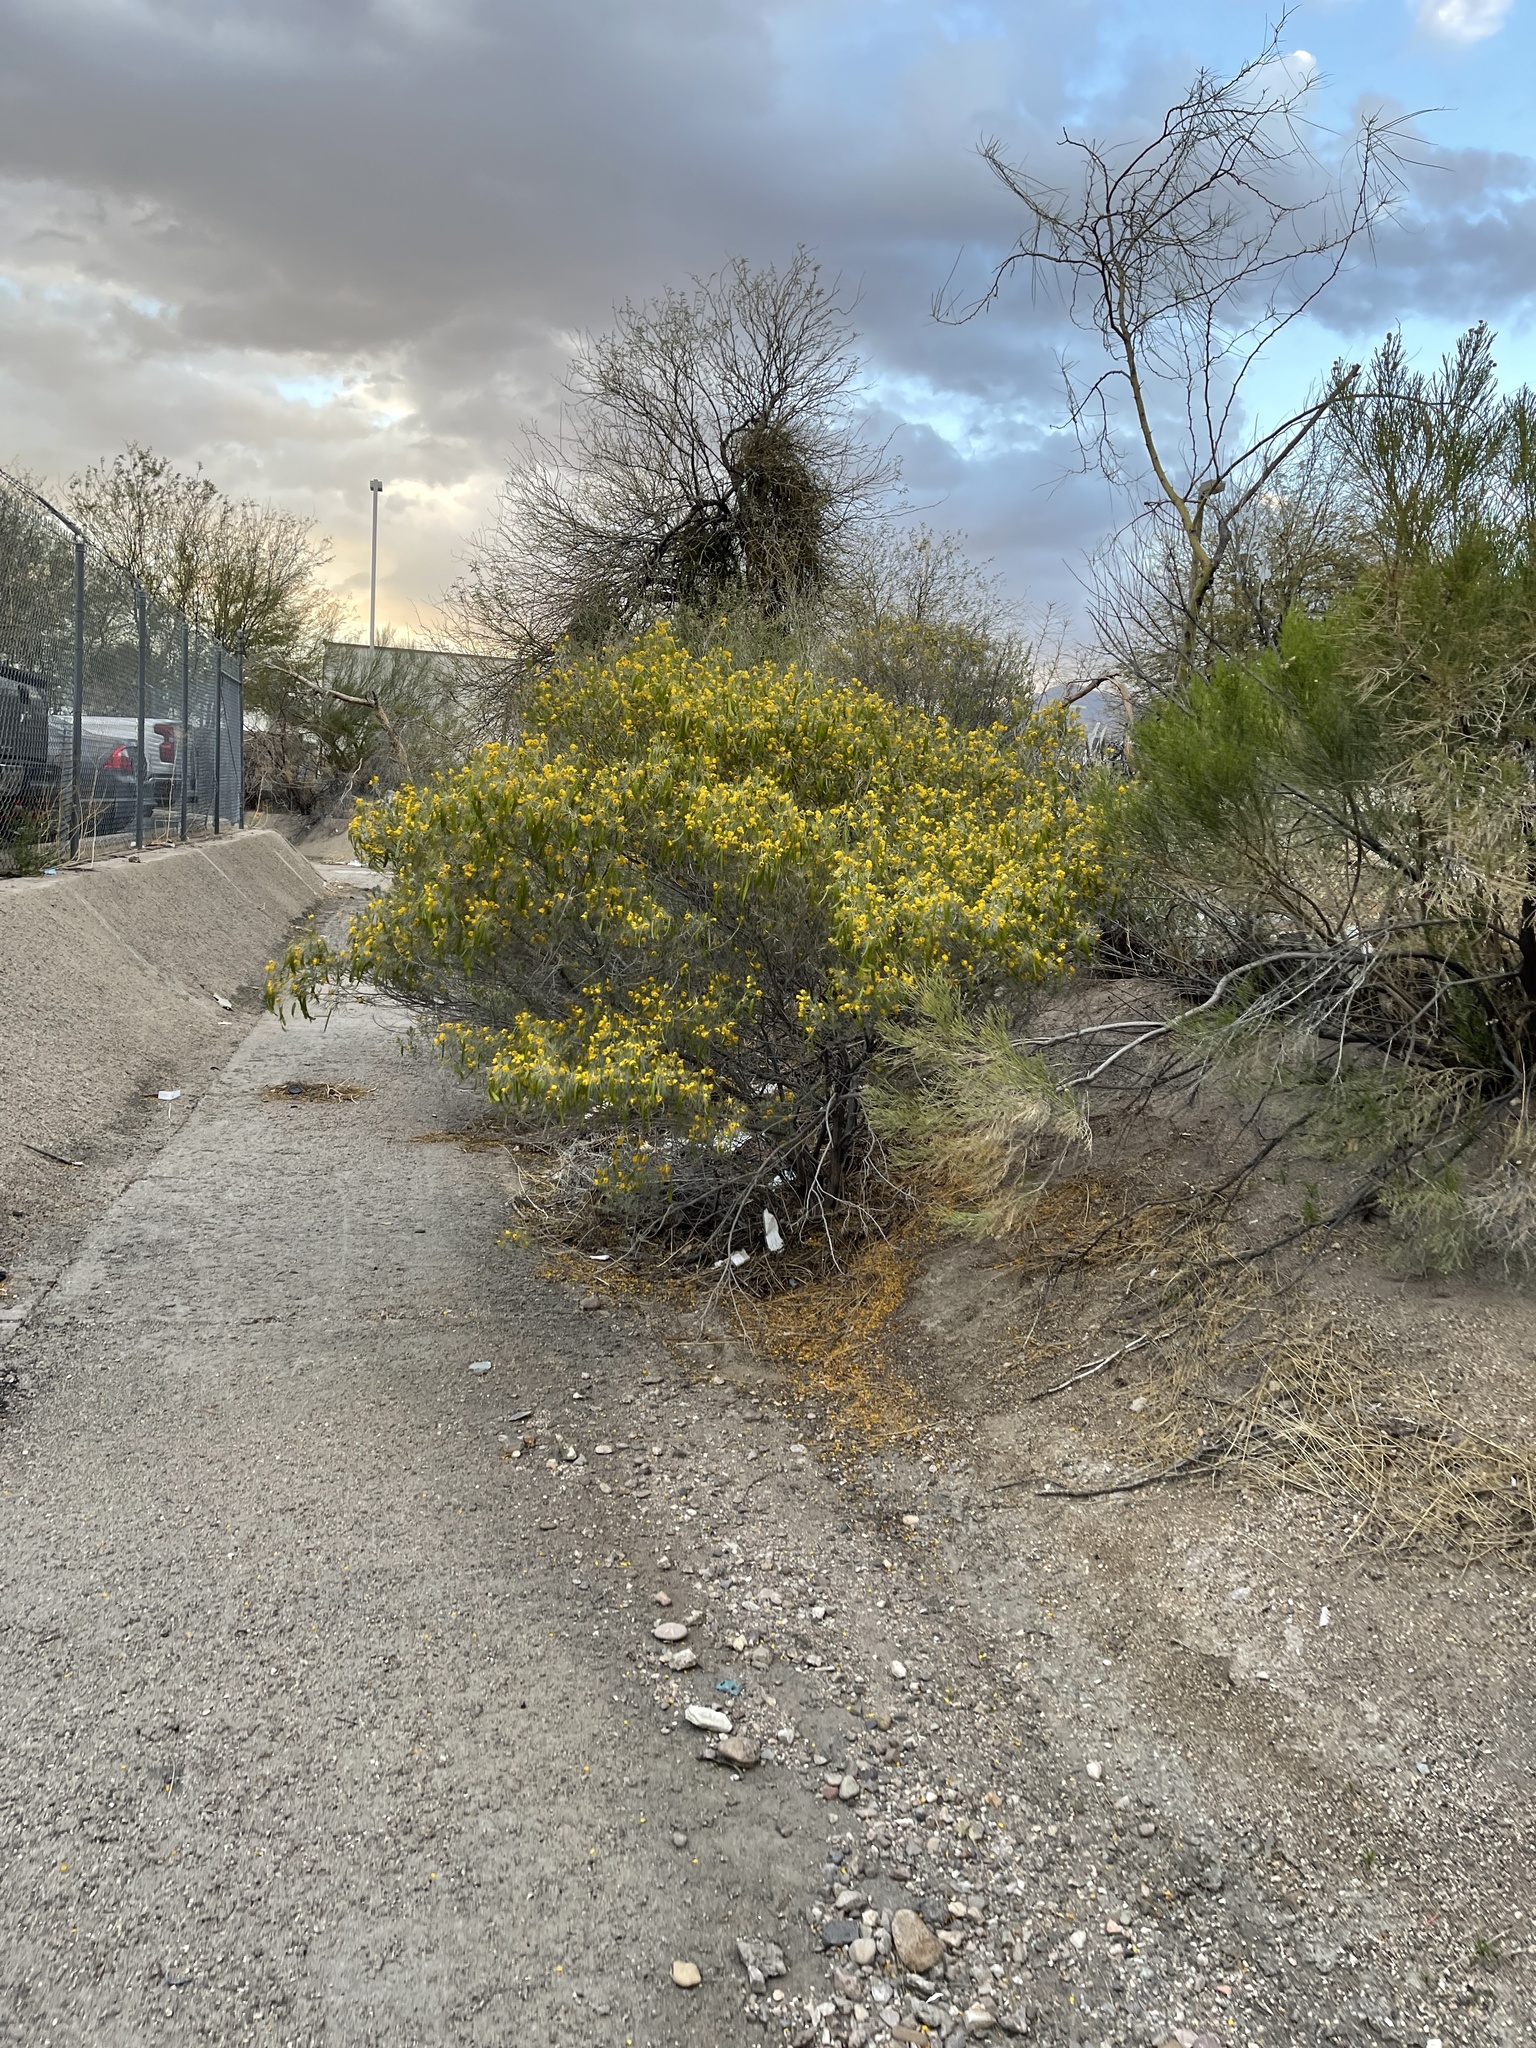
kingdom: Plantae
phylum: Tracheophyta
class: Magnoliopsida
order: Fabales
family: Fabaceae
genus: Senna
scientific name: Senna artemisioides
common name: Burnt-leaved acacia
